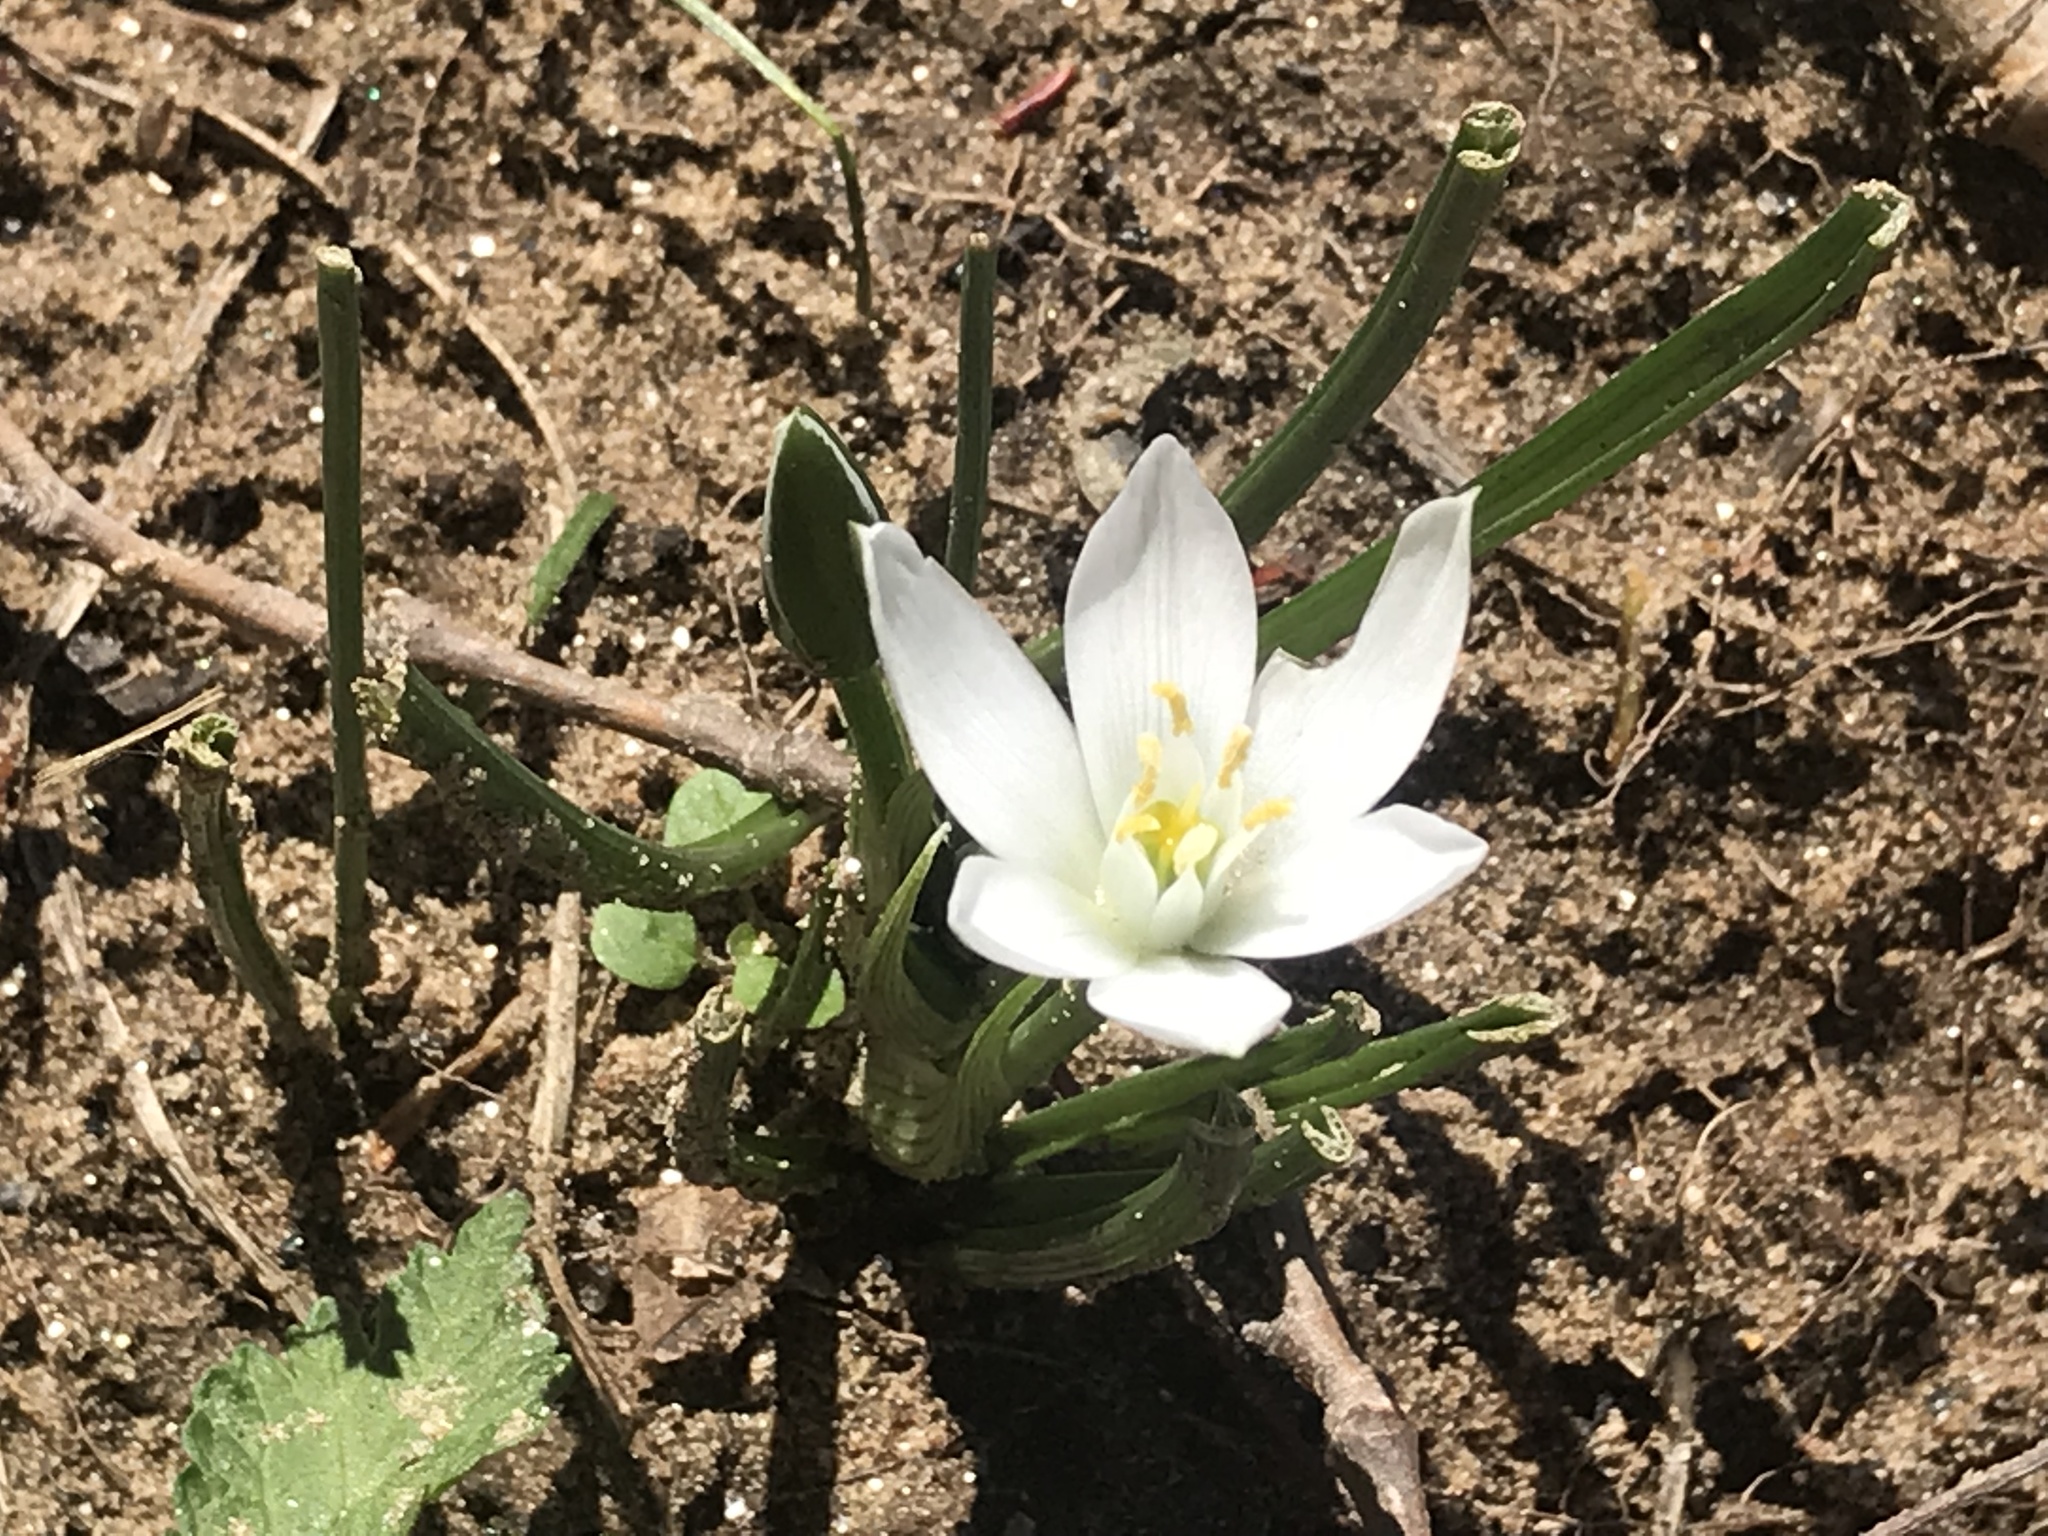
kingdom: Plantae
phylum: Tracheophyta
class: Liliopsida
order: Asparagales
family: Asparagaceae
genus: Ornithogalum
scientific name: Ornithogalum umbellatum
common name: Garden star-of-bethlehem
